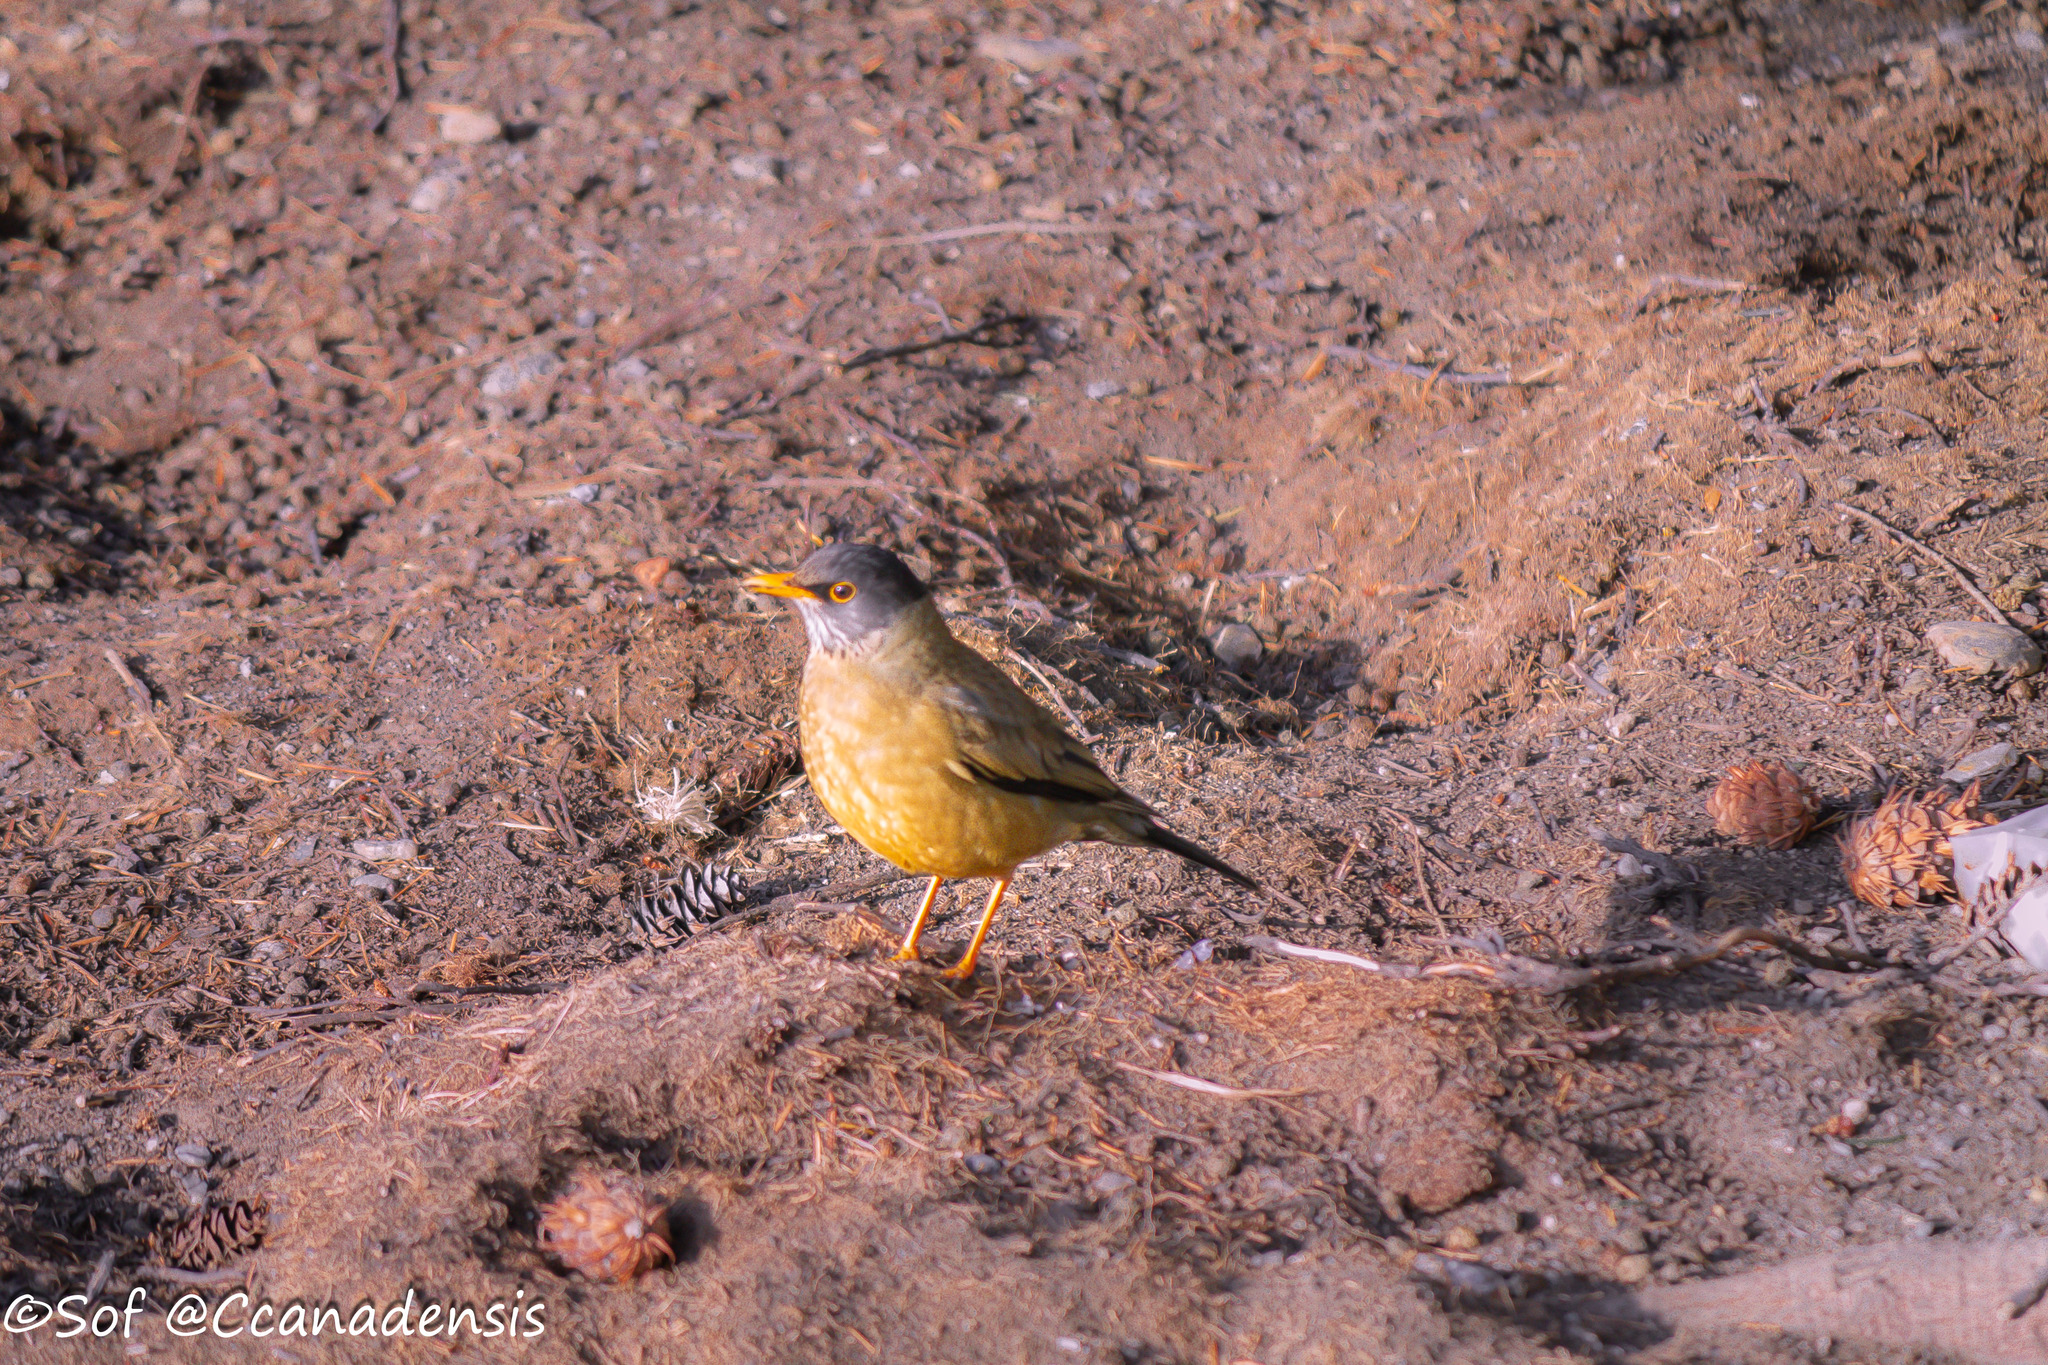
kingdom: Animalia
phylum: Chordata
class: Aves
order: Passeriformes
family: Turdidae
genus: Turdus
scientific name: Turdus falcklandii
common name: Austral thrush
